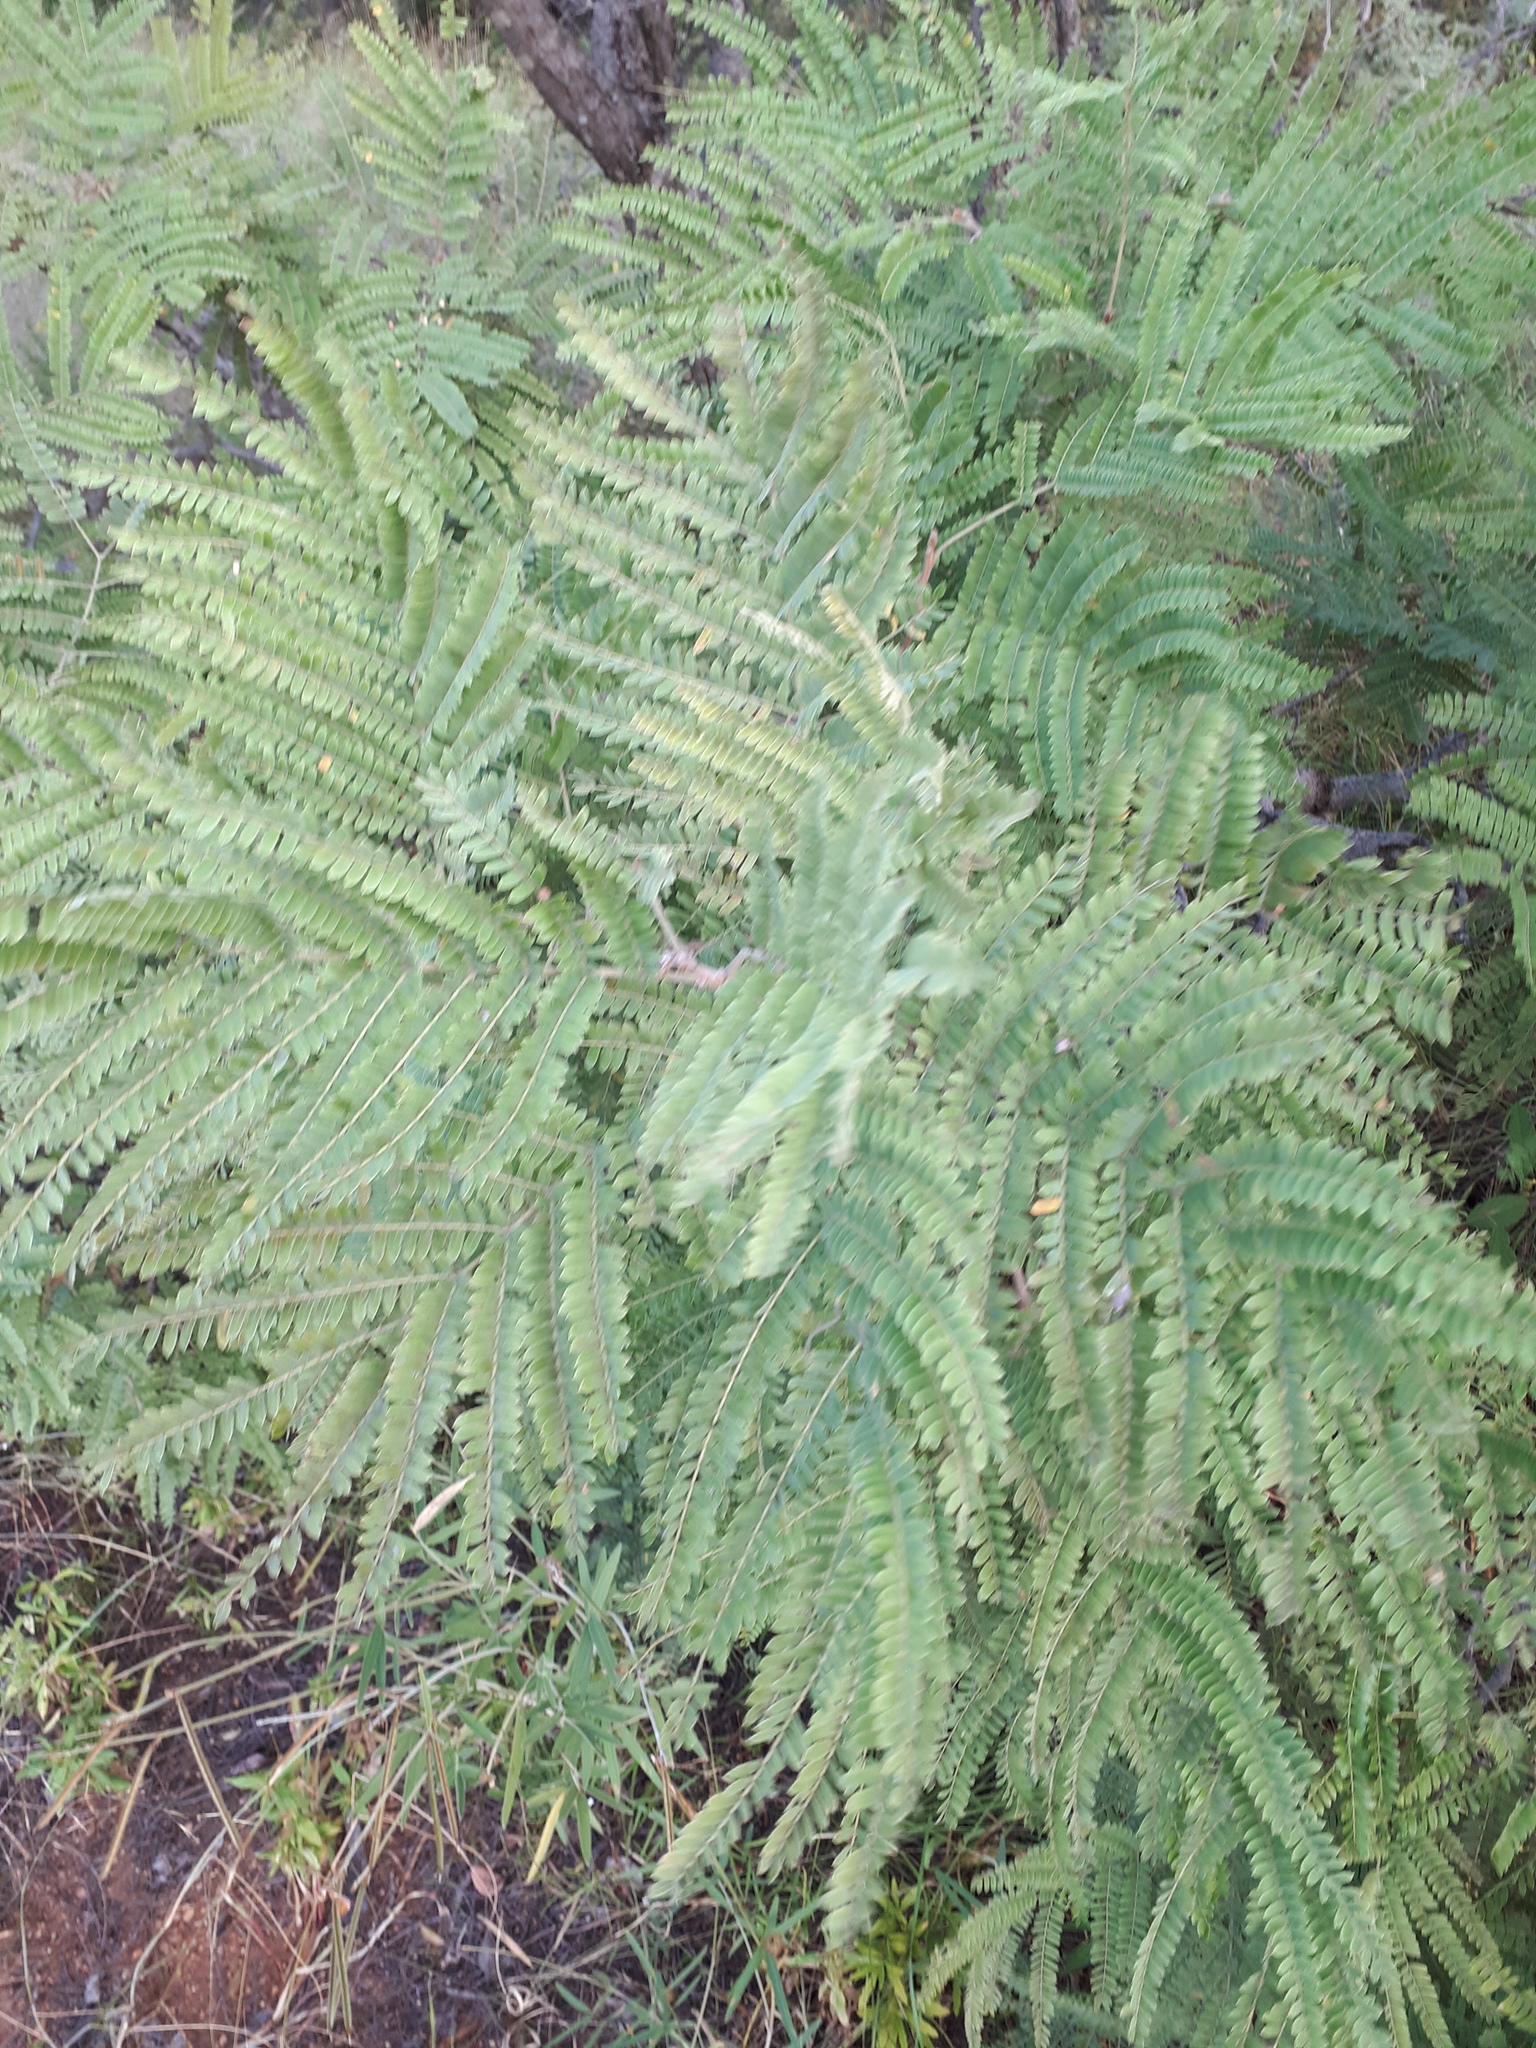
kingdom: Plantae
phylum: Tracheophyta
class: Magnoliopsida
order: Fabales
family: Fabaceae
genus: Peltophorum
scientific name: Peltophorum africanum
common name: African black wattle
